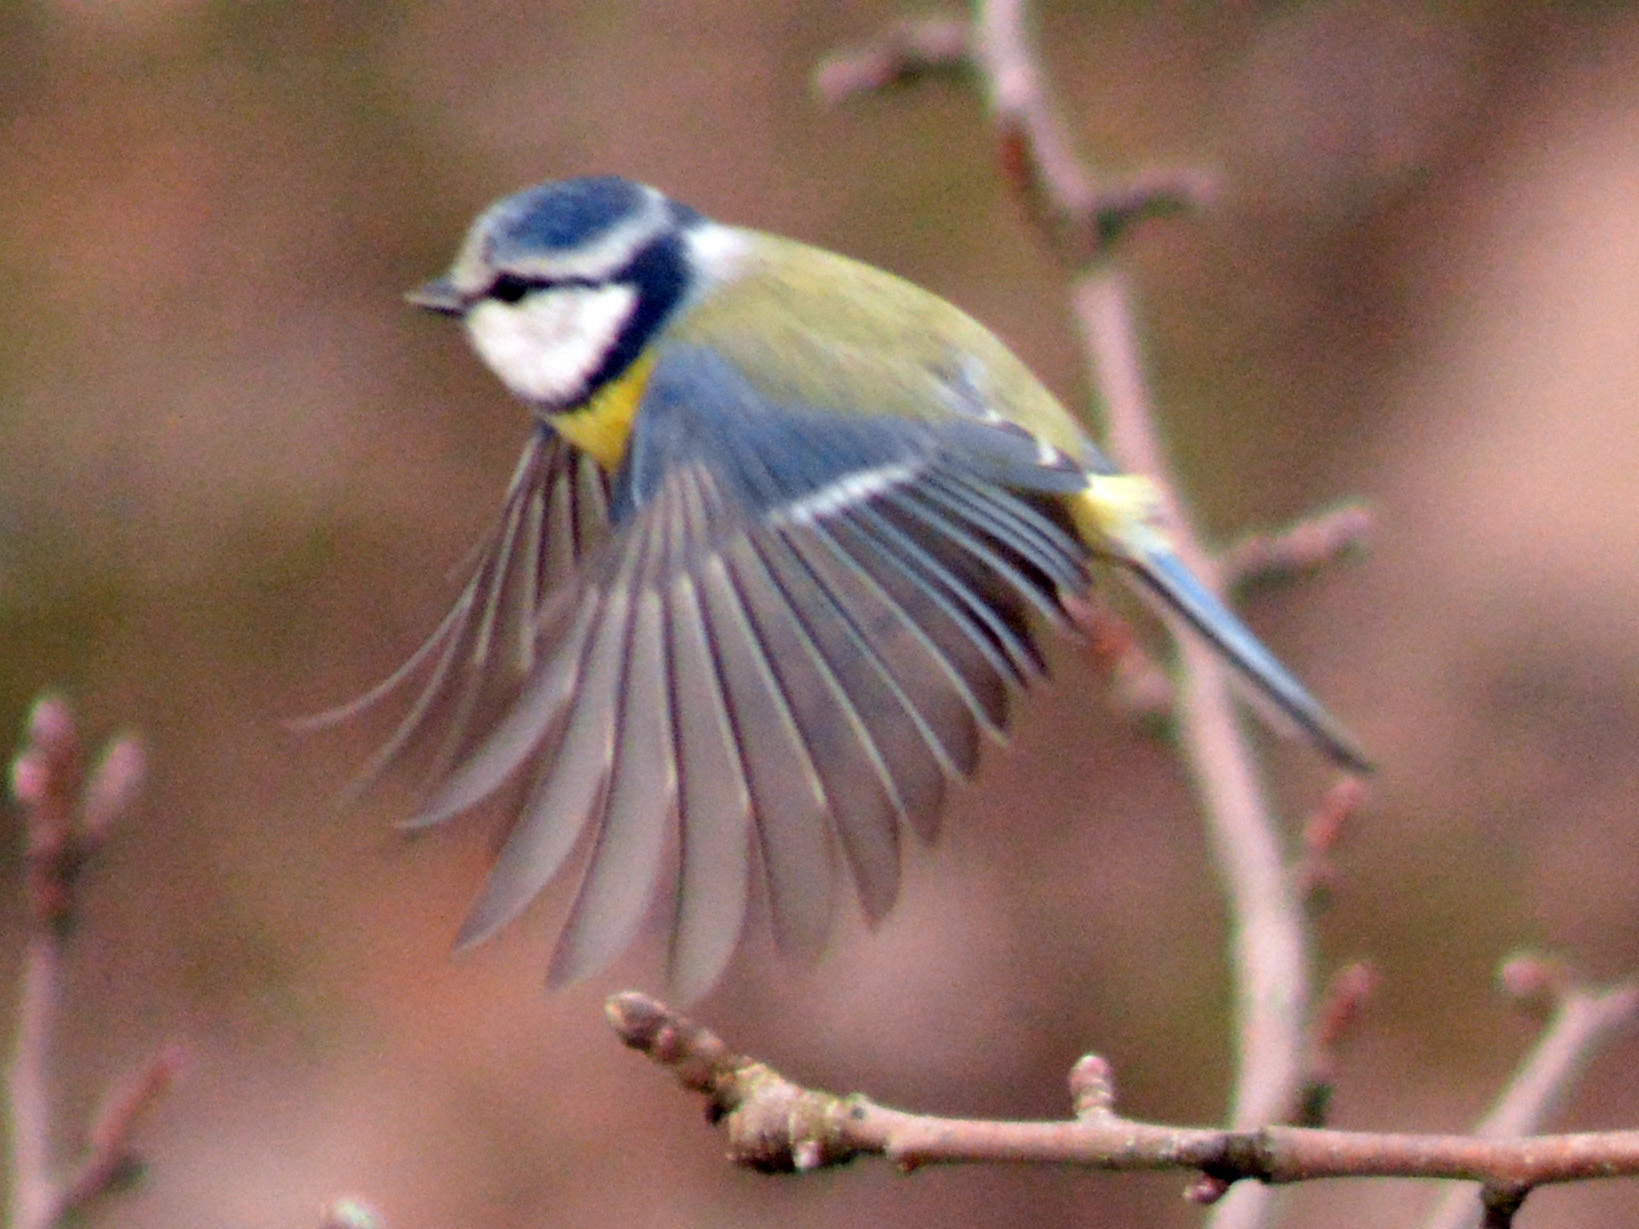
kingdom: Animalia
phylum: Chordata
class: Aves
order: Passeriformes
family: Paridae
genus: Cyanistes
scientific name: Cyanistes caeruleus
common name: Eurasian blue tit
